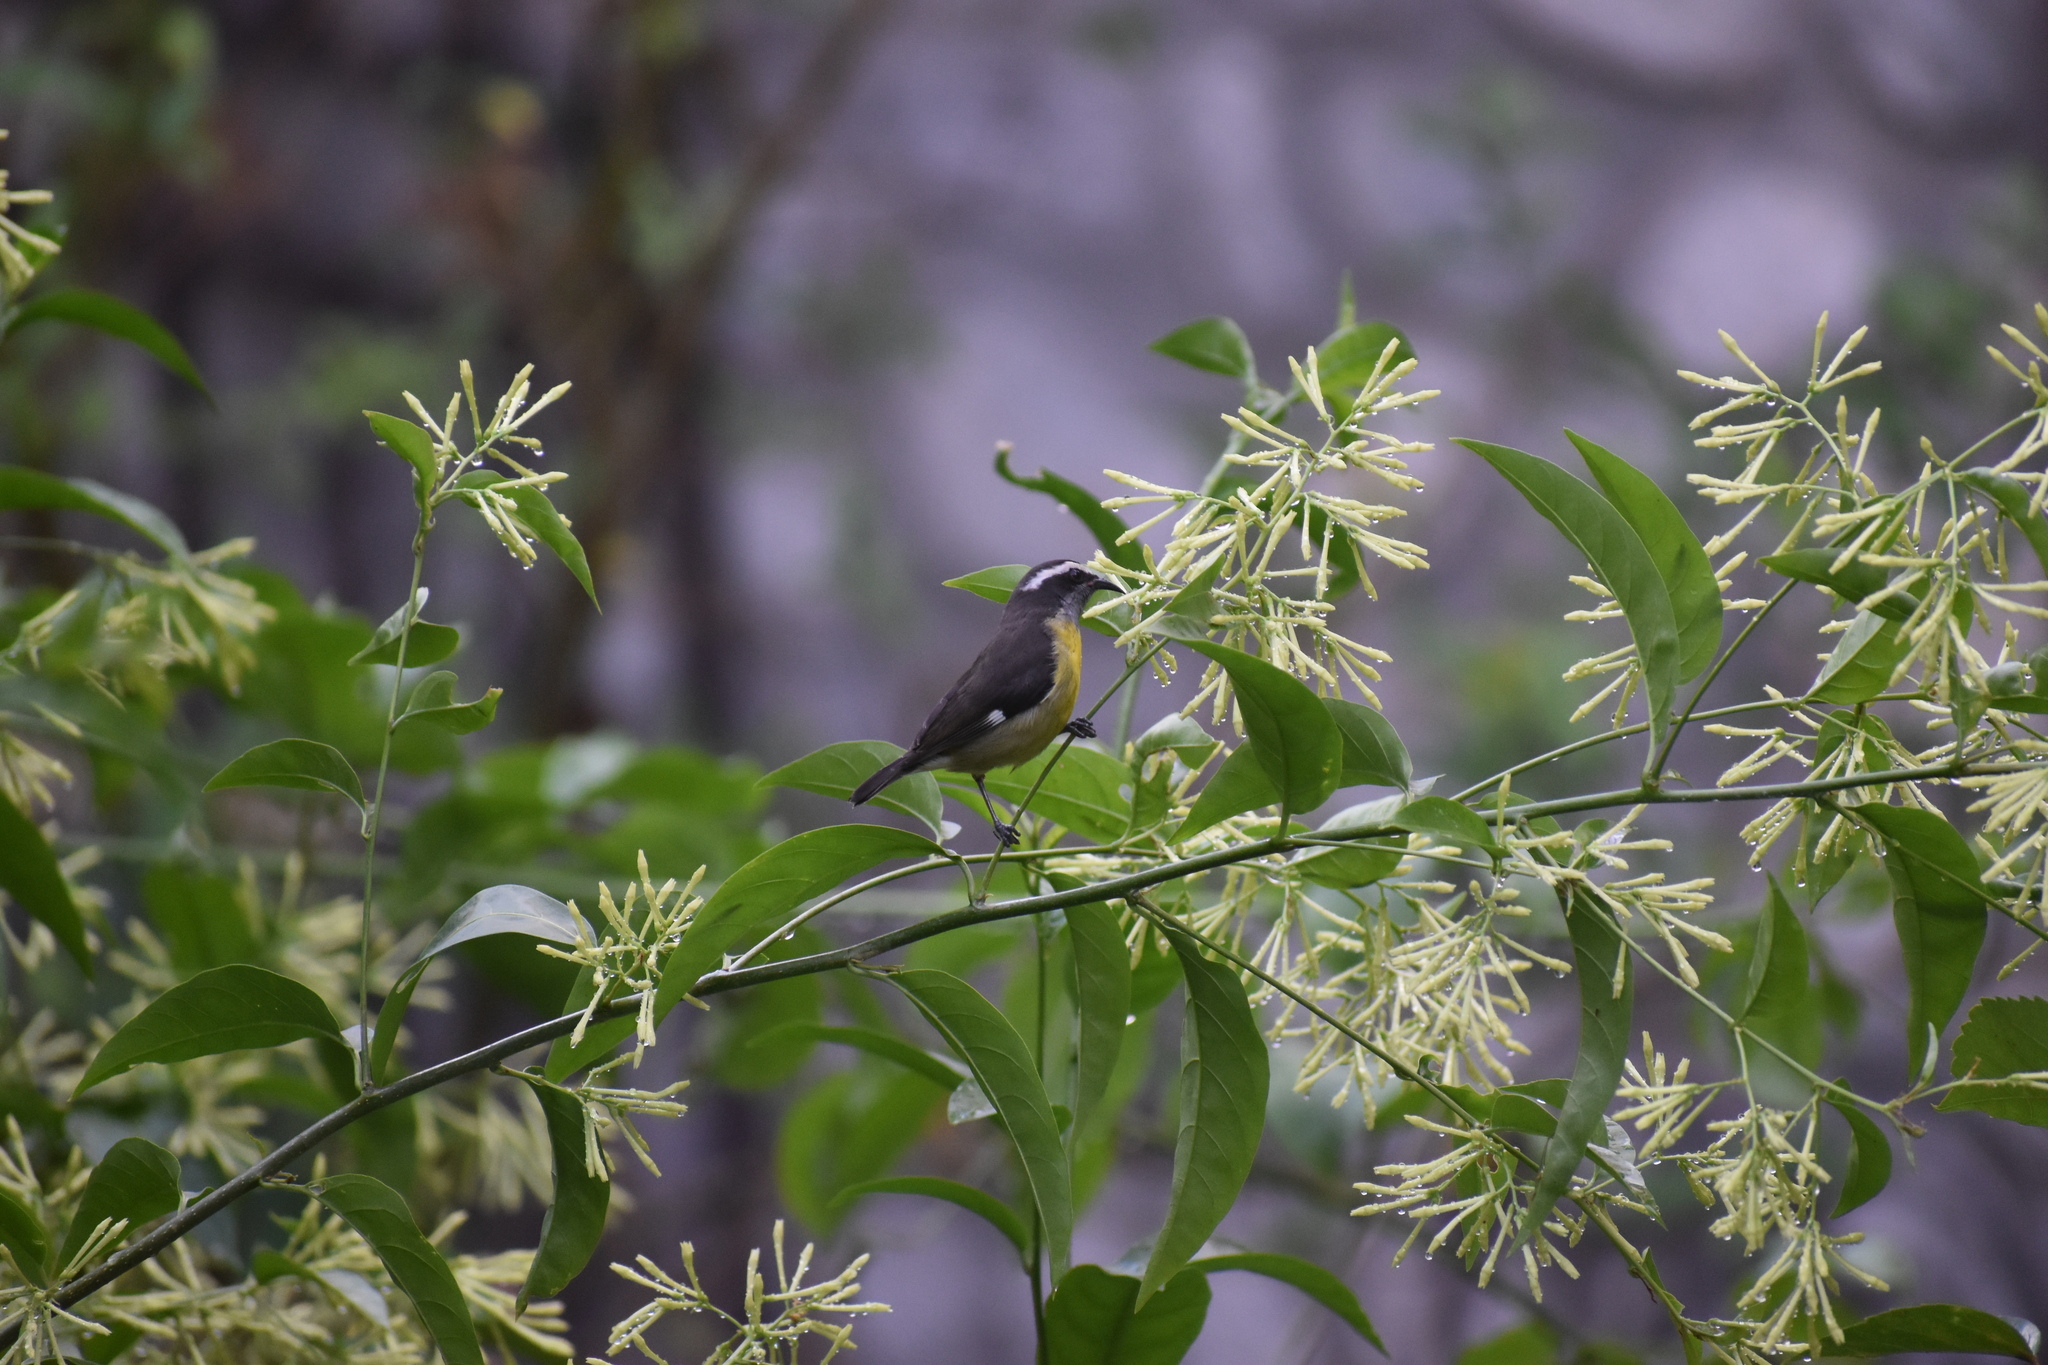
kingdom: Animalia
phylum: Chordata
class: Aves
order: Passeriformes
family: Thraupidae
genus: Coereba
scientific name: Coereba flaveola
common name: Bananaquit
